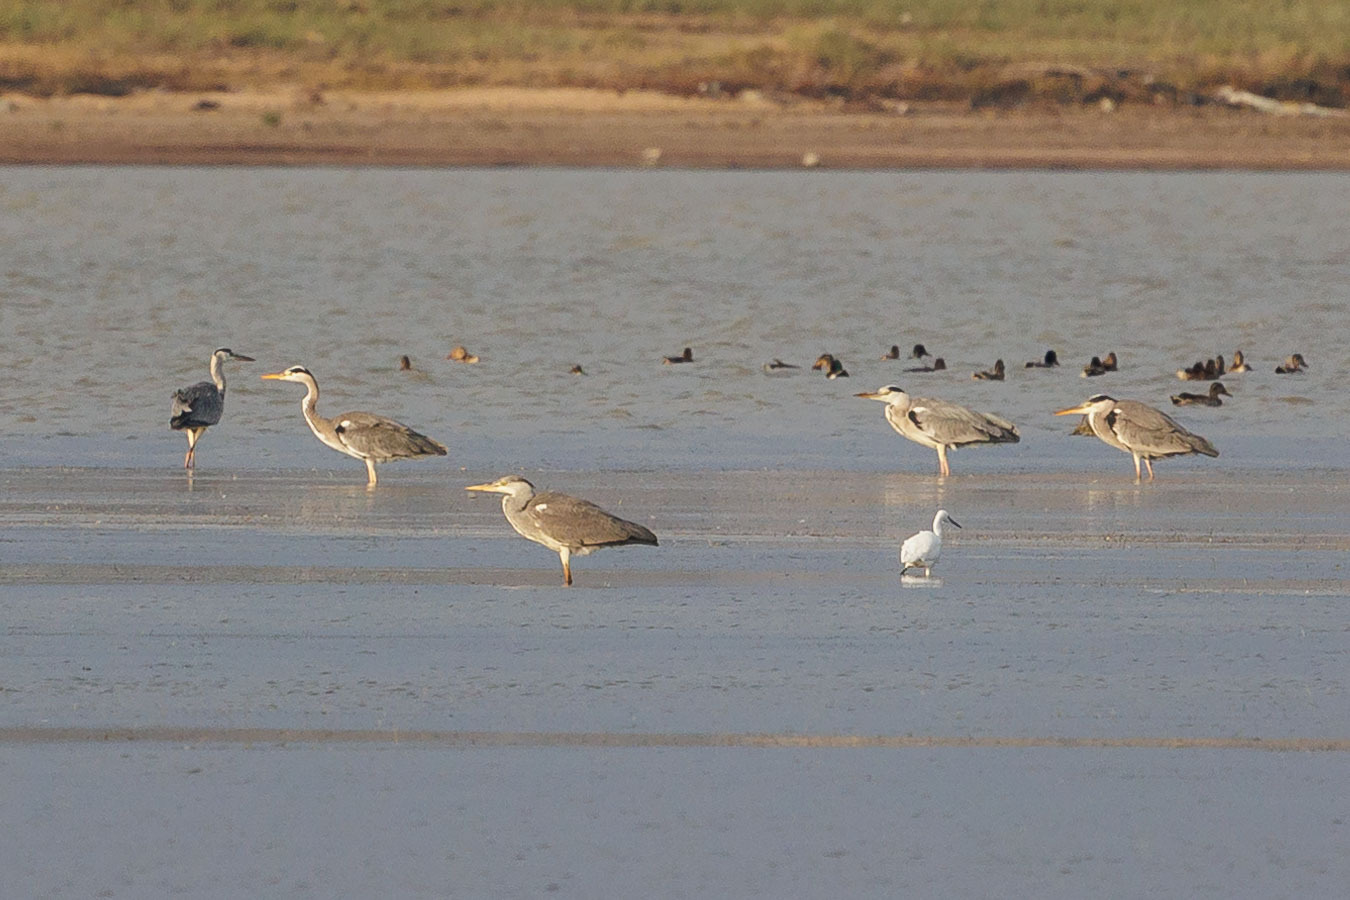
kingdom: Animalia
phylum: Chordata
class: Aves
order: Pelecaniformes
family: Ardeidae
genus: Ardea
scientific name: Ardea cinerea
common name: Grey heron
